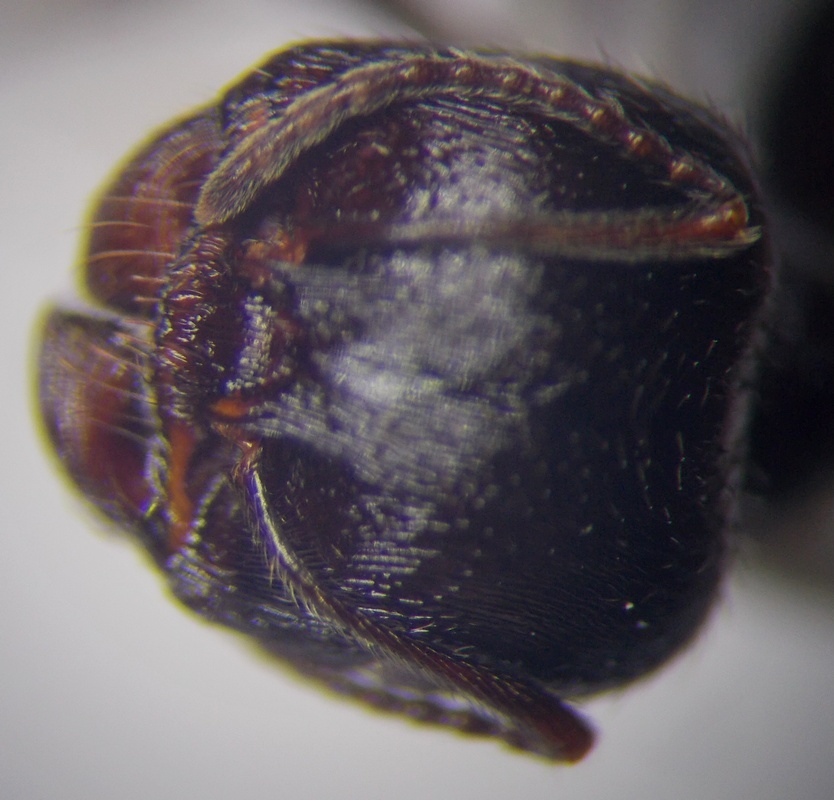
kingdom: Animalia
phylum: Arthropoda
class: Insecta
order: Hymenoptera
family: Formicidae
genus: Messor
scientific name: Messor structor
